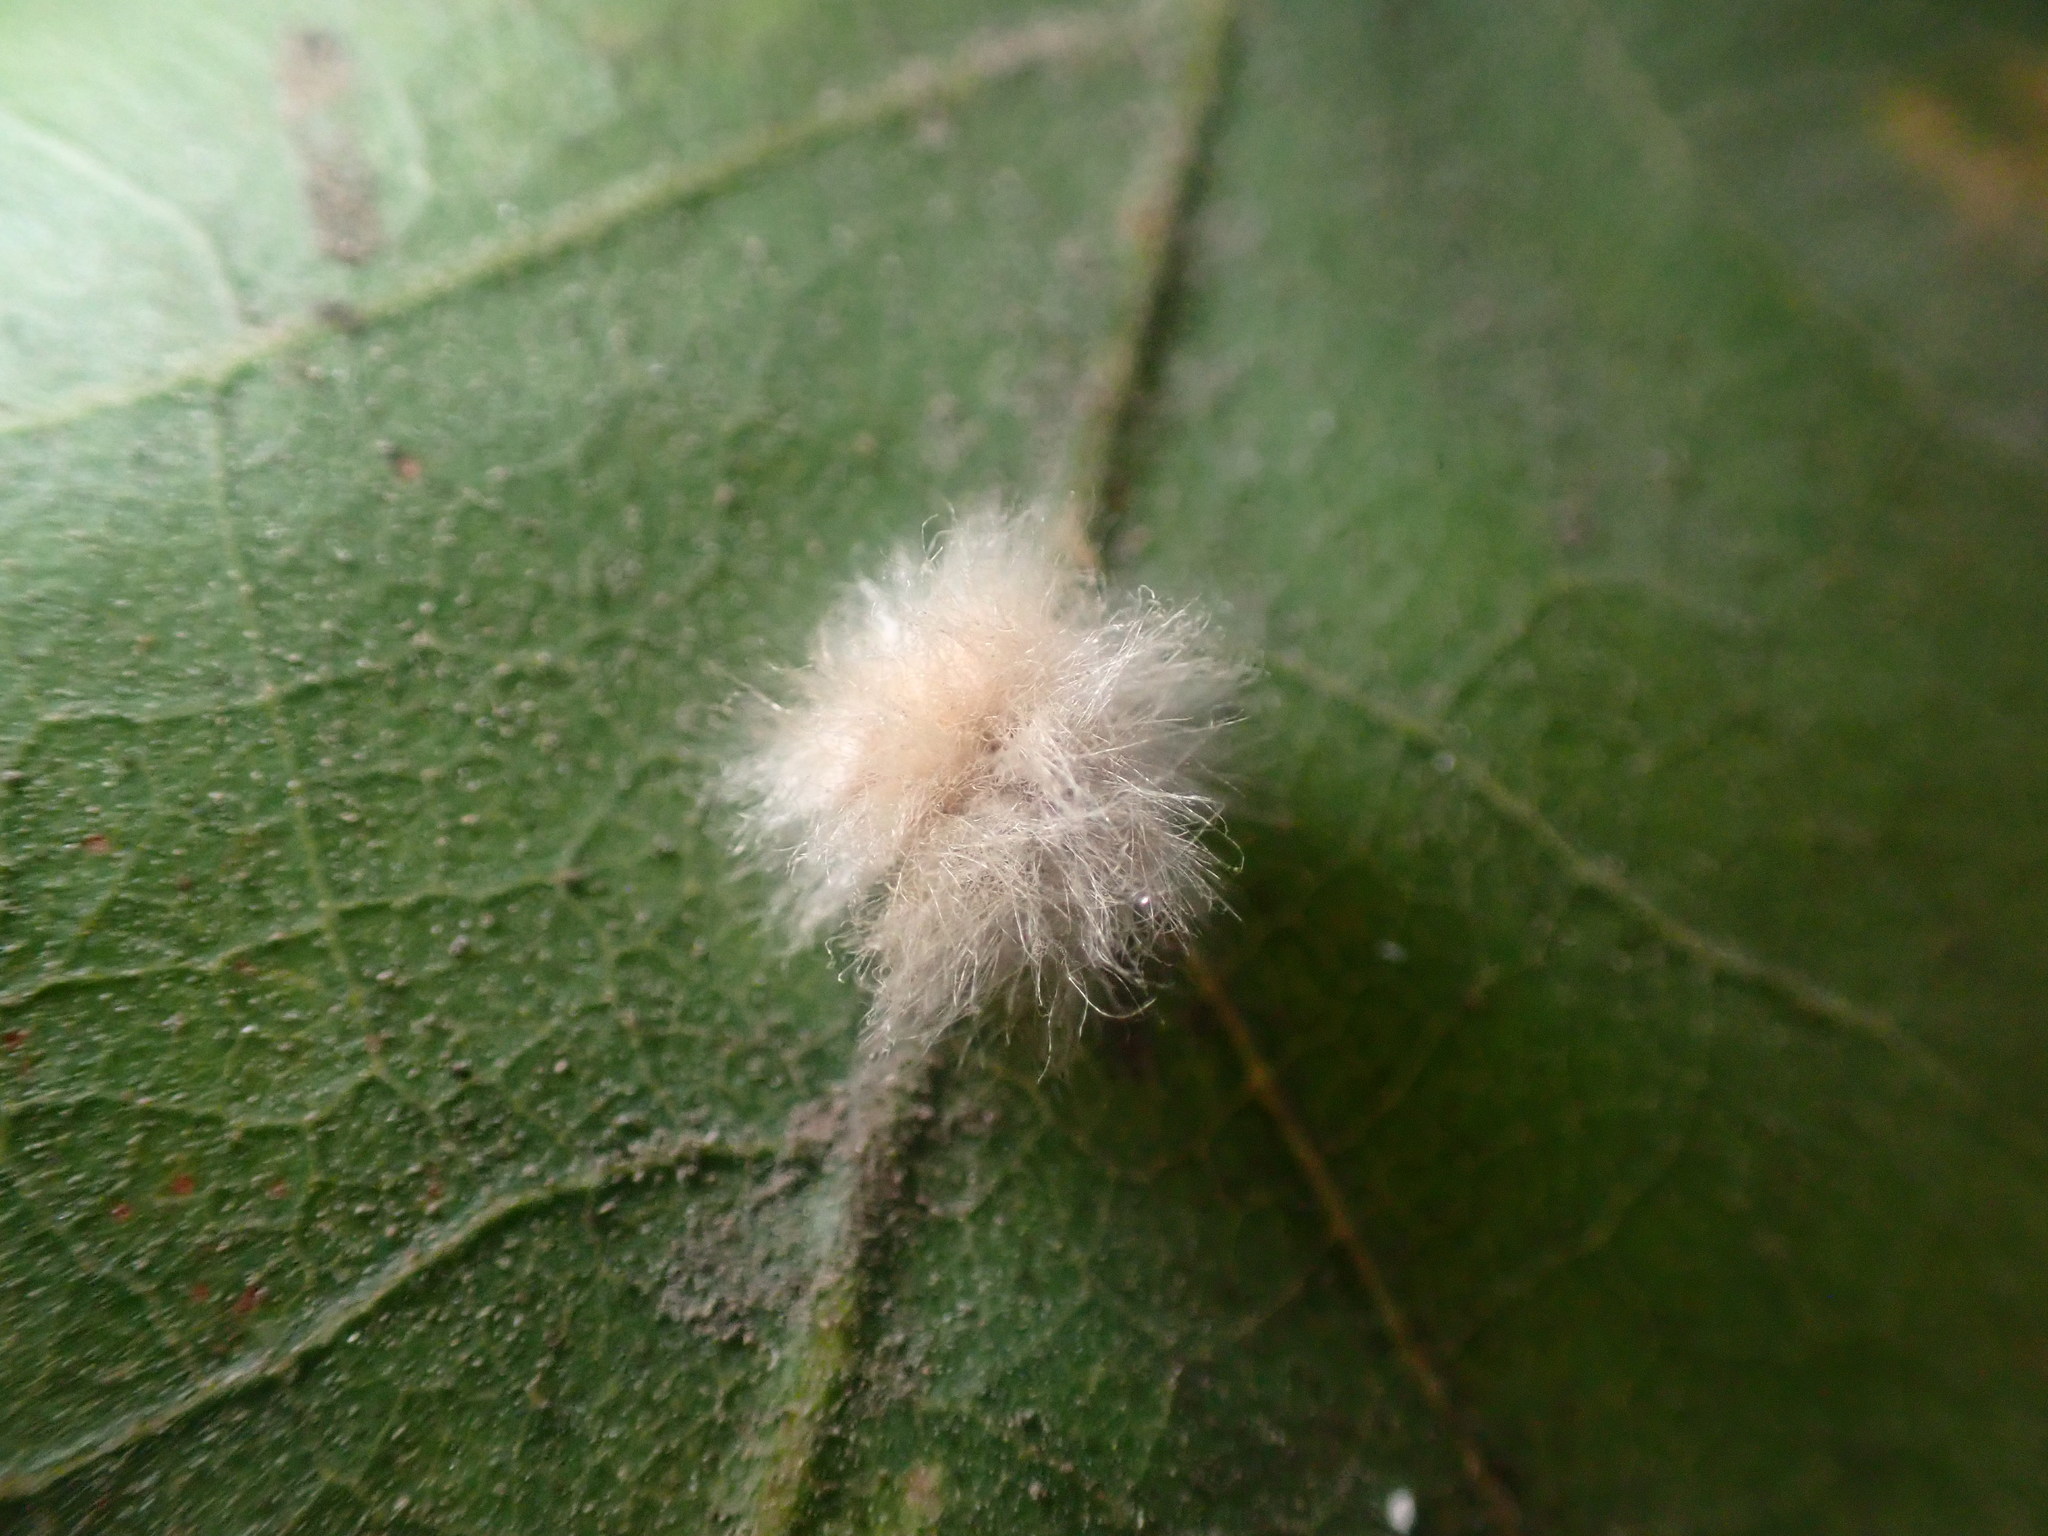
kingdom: Animalia
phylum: Arthropoda
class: Insecta
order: Hymenoptera
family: Cynipidae
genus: Andricus
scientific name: Andricus Druon fullawayi
